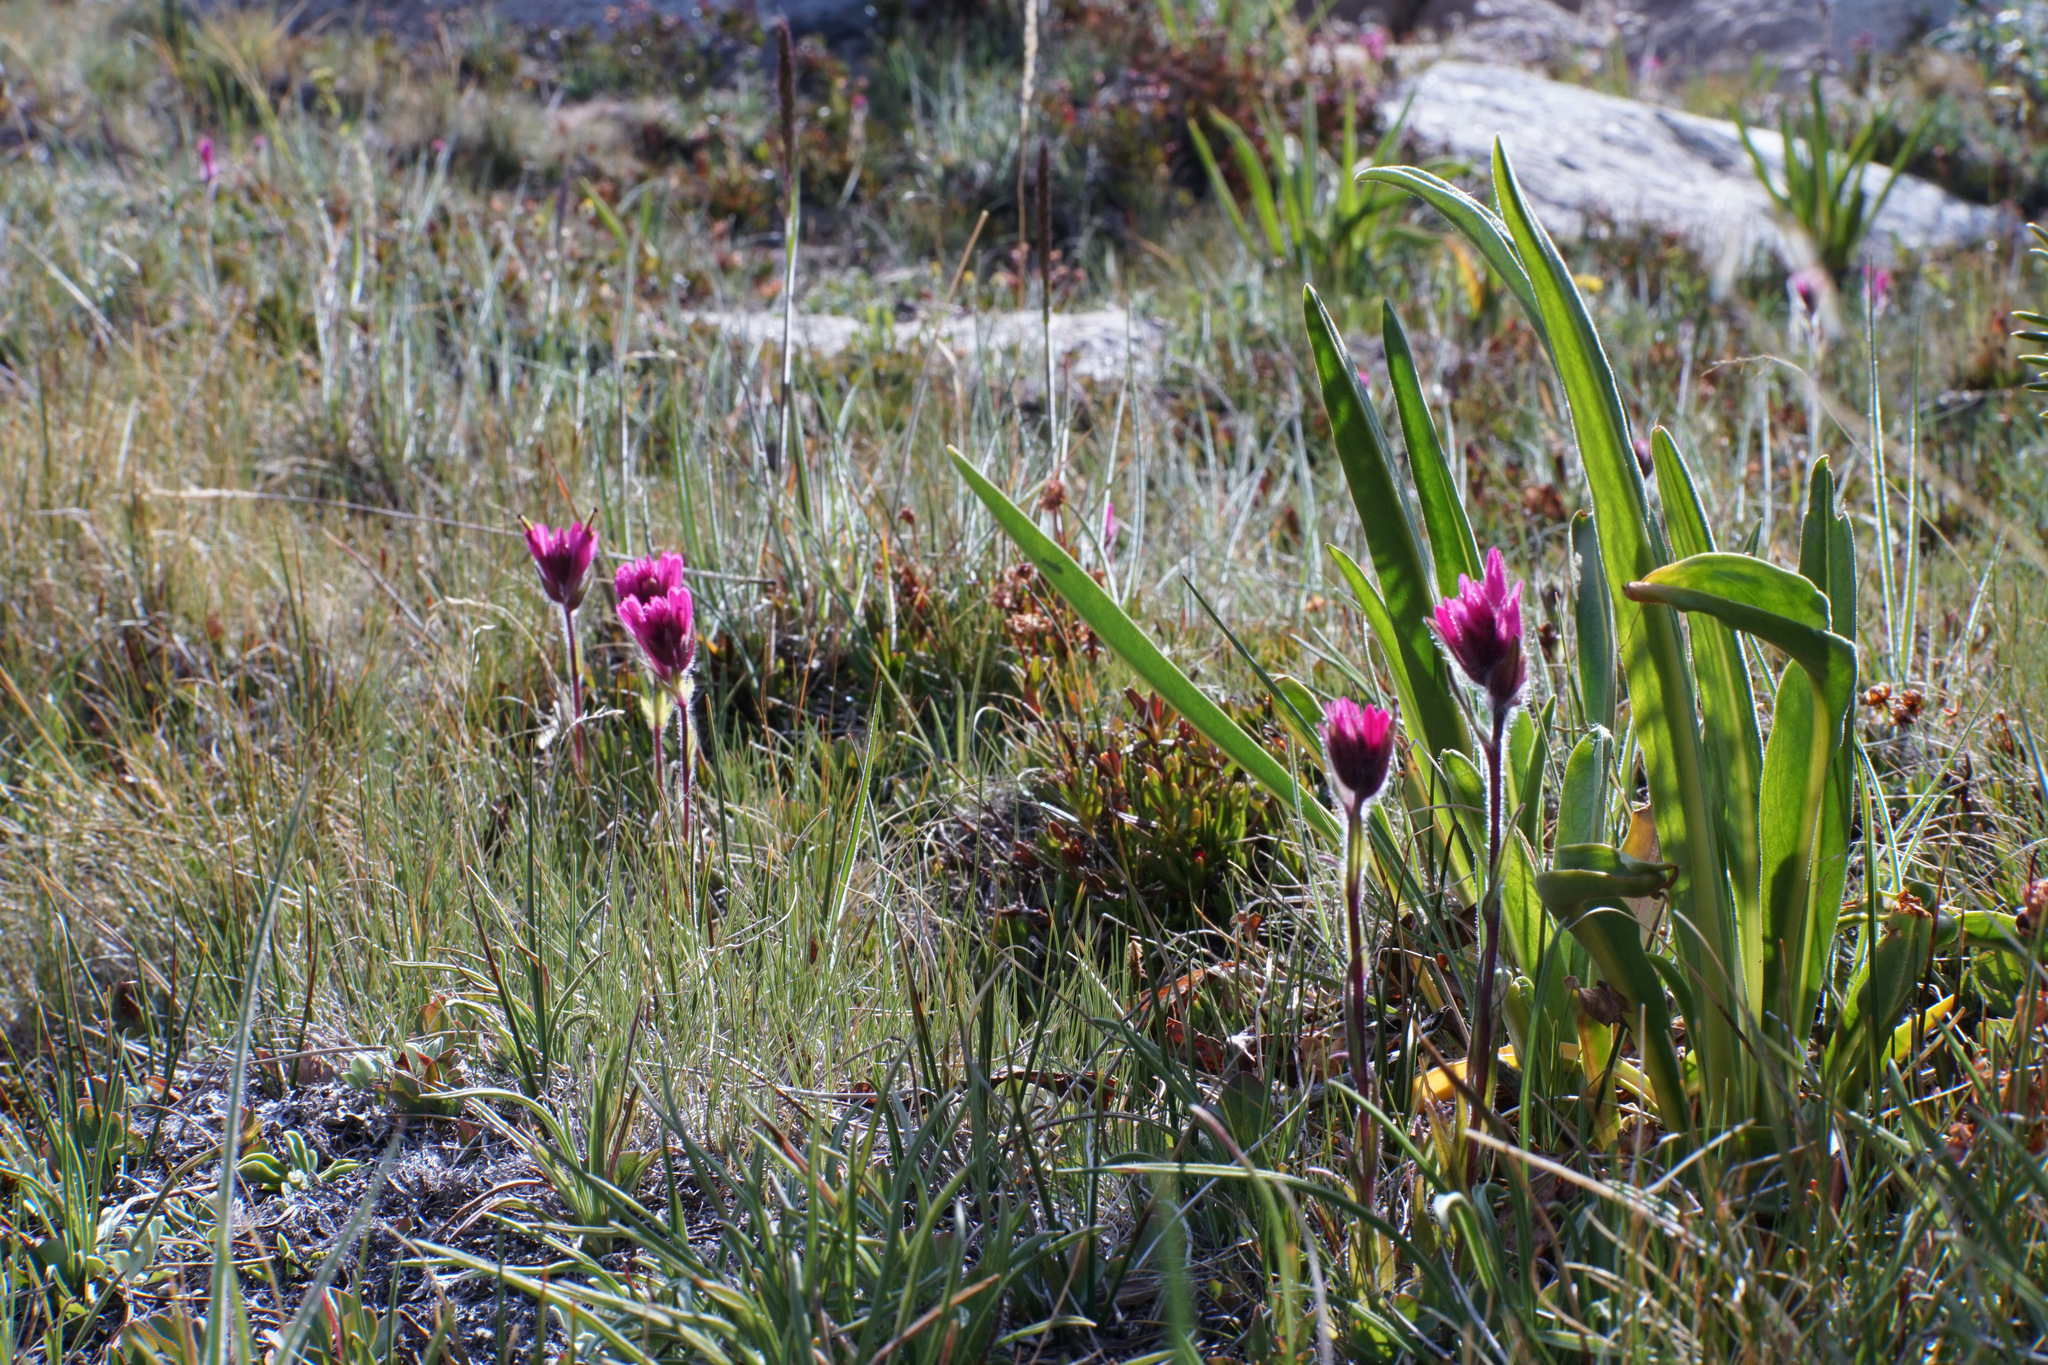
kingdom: Plantae
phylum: Tracheophyta
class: Magnoliopsida
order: Lamiales
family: Orobanchaceae
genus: Castilleja
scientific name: Castilleja lemmonii
